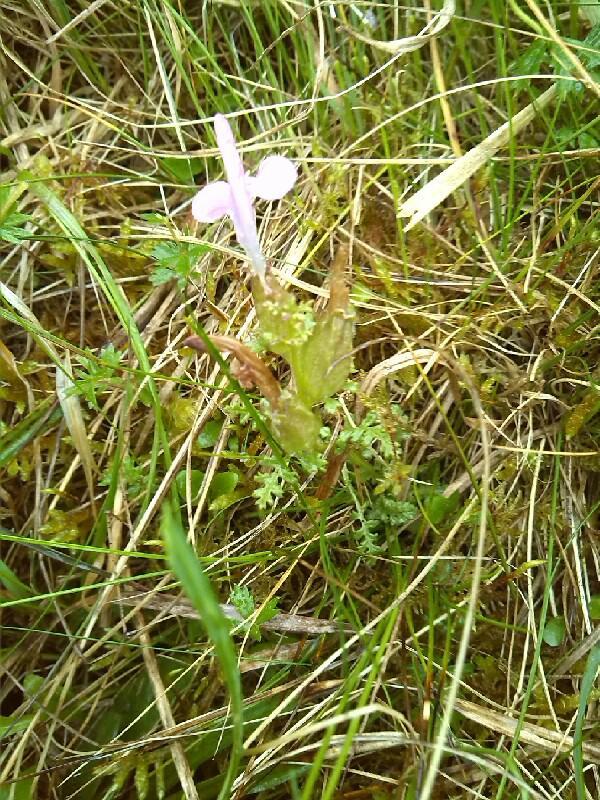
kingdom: Plantae
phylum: Tracheophyta
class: Magnoliopsida
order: Lamiales
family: Orobanchaceae
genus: Pedicularis
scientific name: Pedicularis sylvatica
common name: Lousewort
